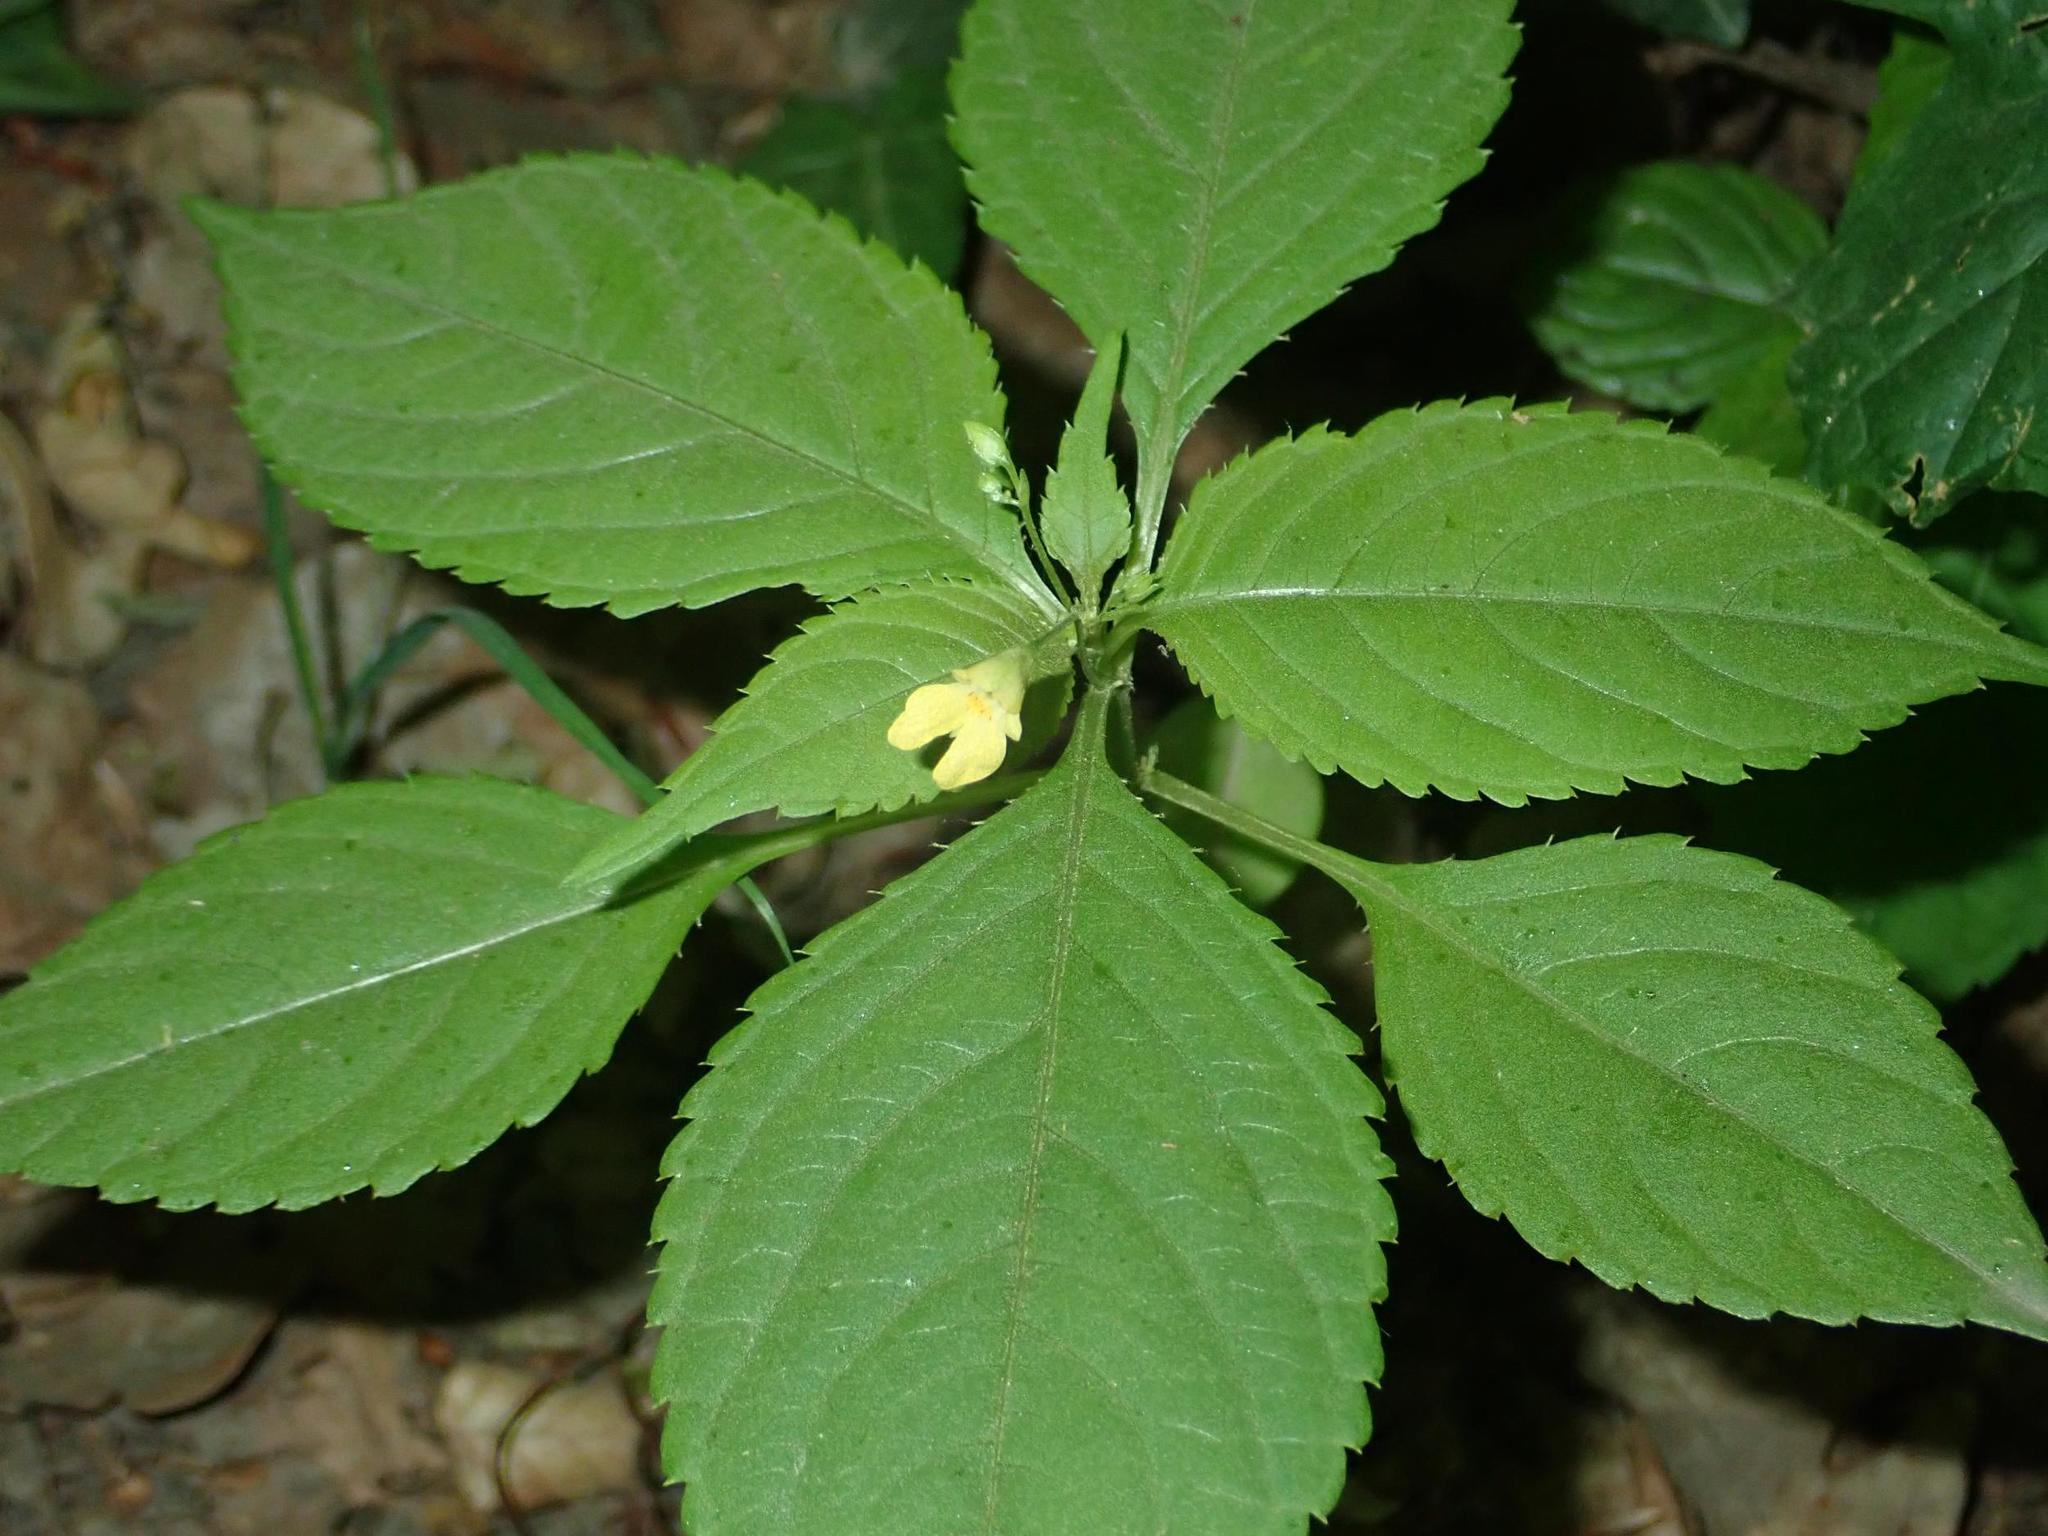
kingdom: Plantae
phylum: Tracheophyta
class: Magnoliopsida
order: Ericales
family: Balsaminaceae
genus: Impatiens
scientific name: Impatiens parviflora
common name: Small balsam
